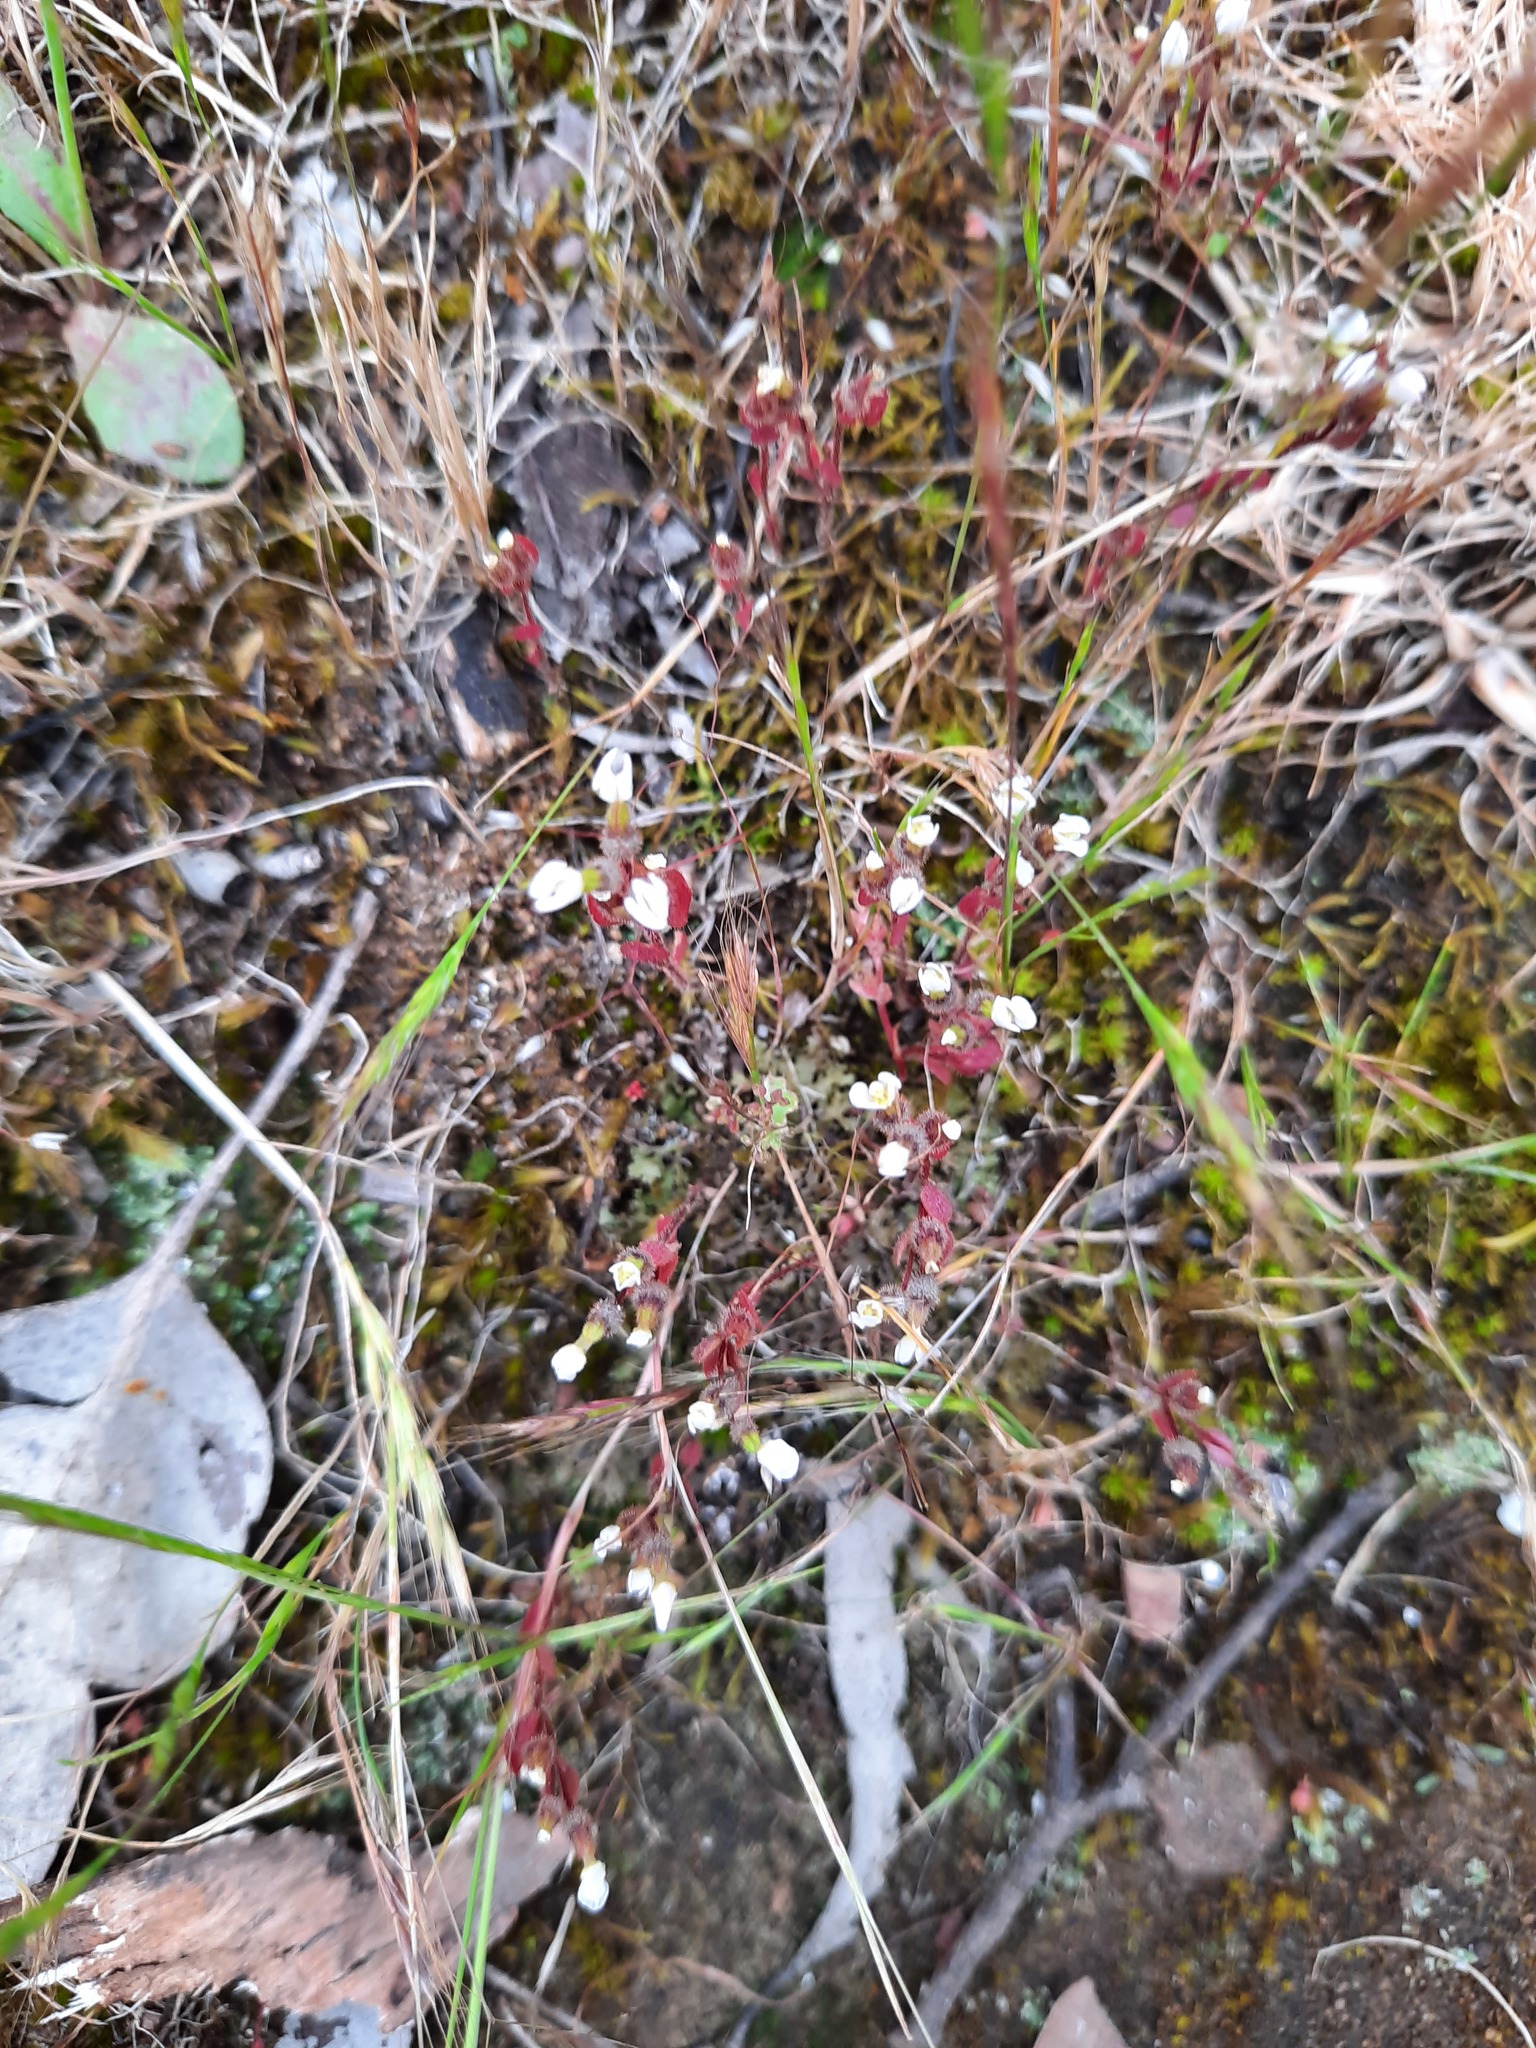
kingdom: Plantae
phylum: Tracheophyta
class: Magnoliopsida
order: Asterales
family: Stylidiaceae
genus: Levenhookia
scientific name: Levenhookia dubia
